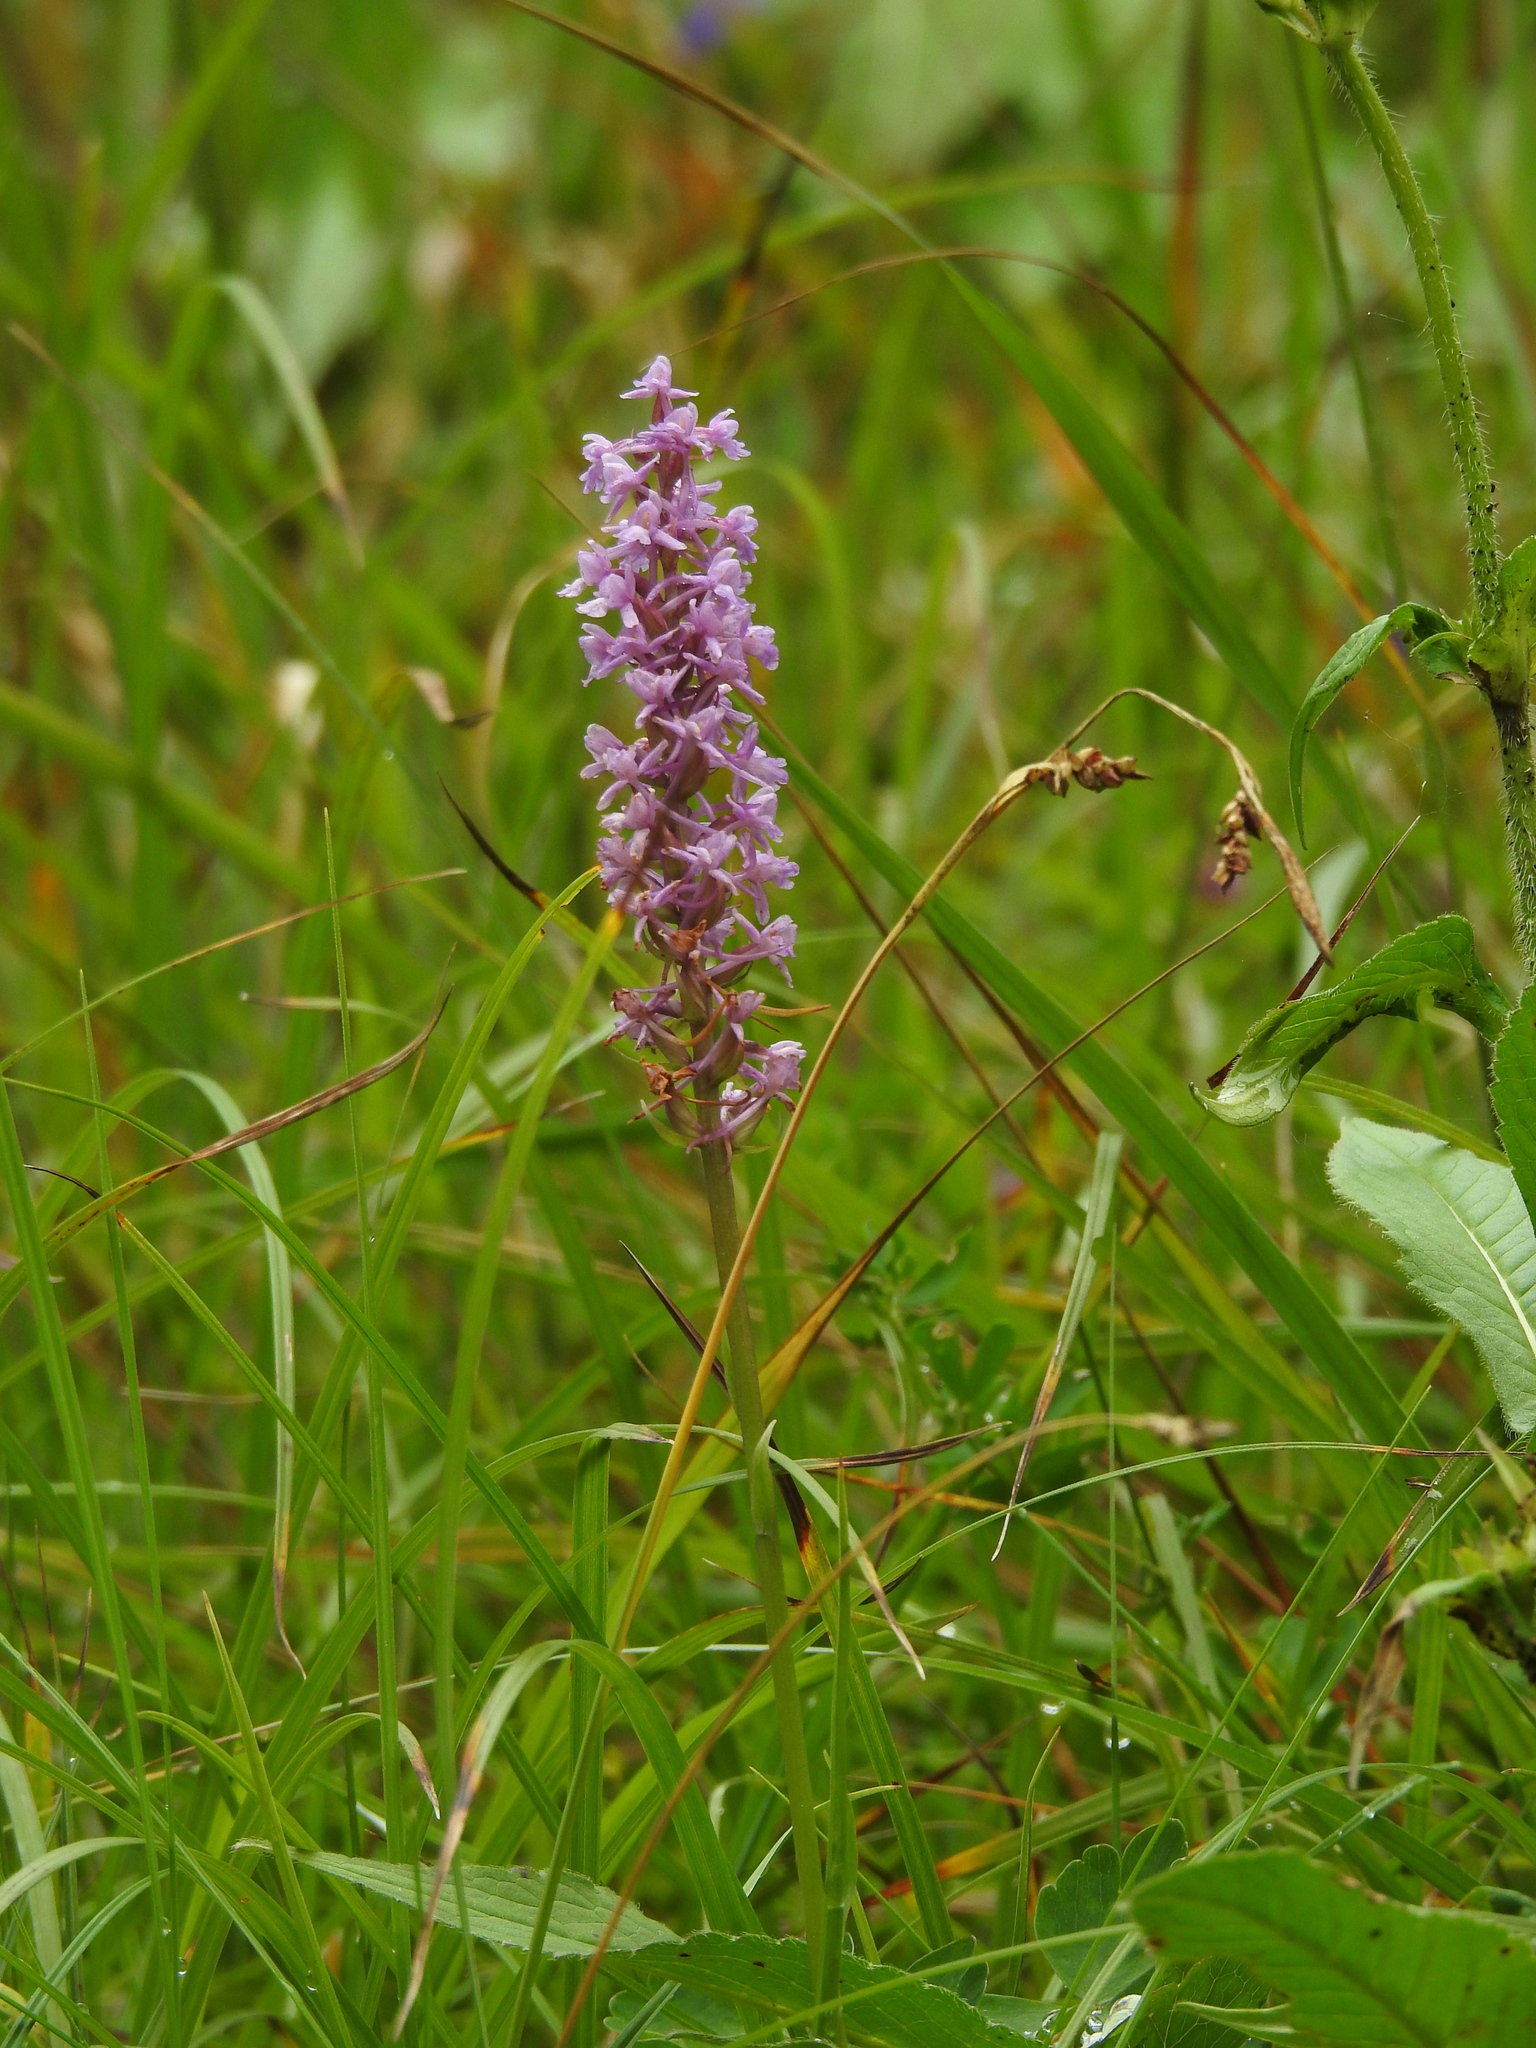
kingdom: Plantae
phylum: Tracheophyta
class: Liliopsida
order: Asparagales
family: Orchidaceae
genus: Gymnadenia
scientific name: Gymnadenia conopsea
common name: Fragrant orchid
